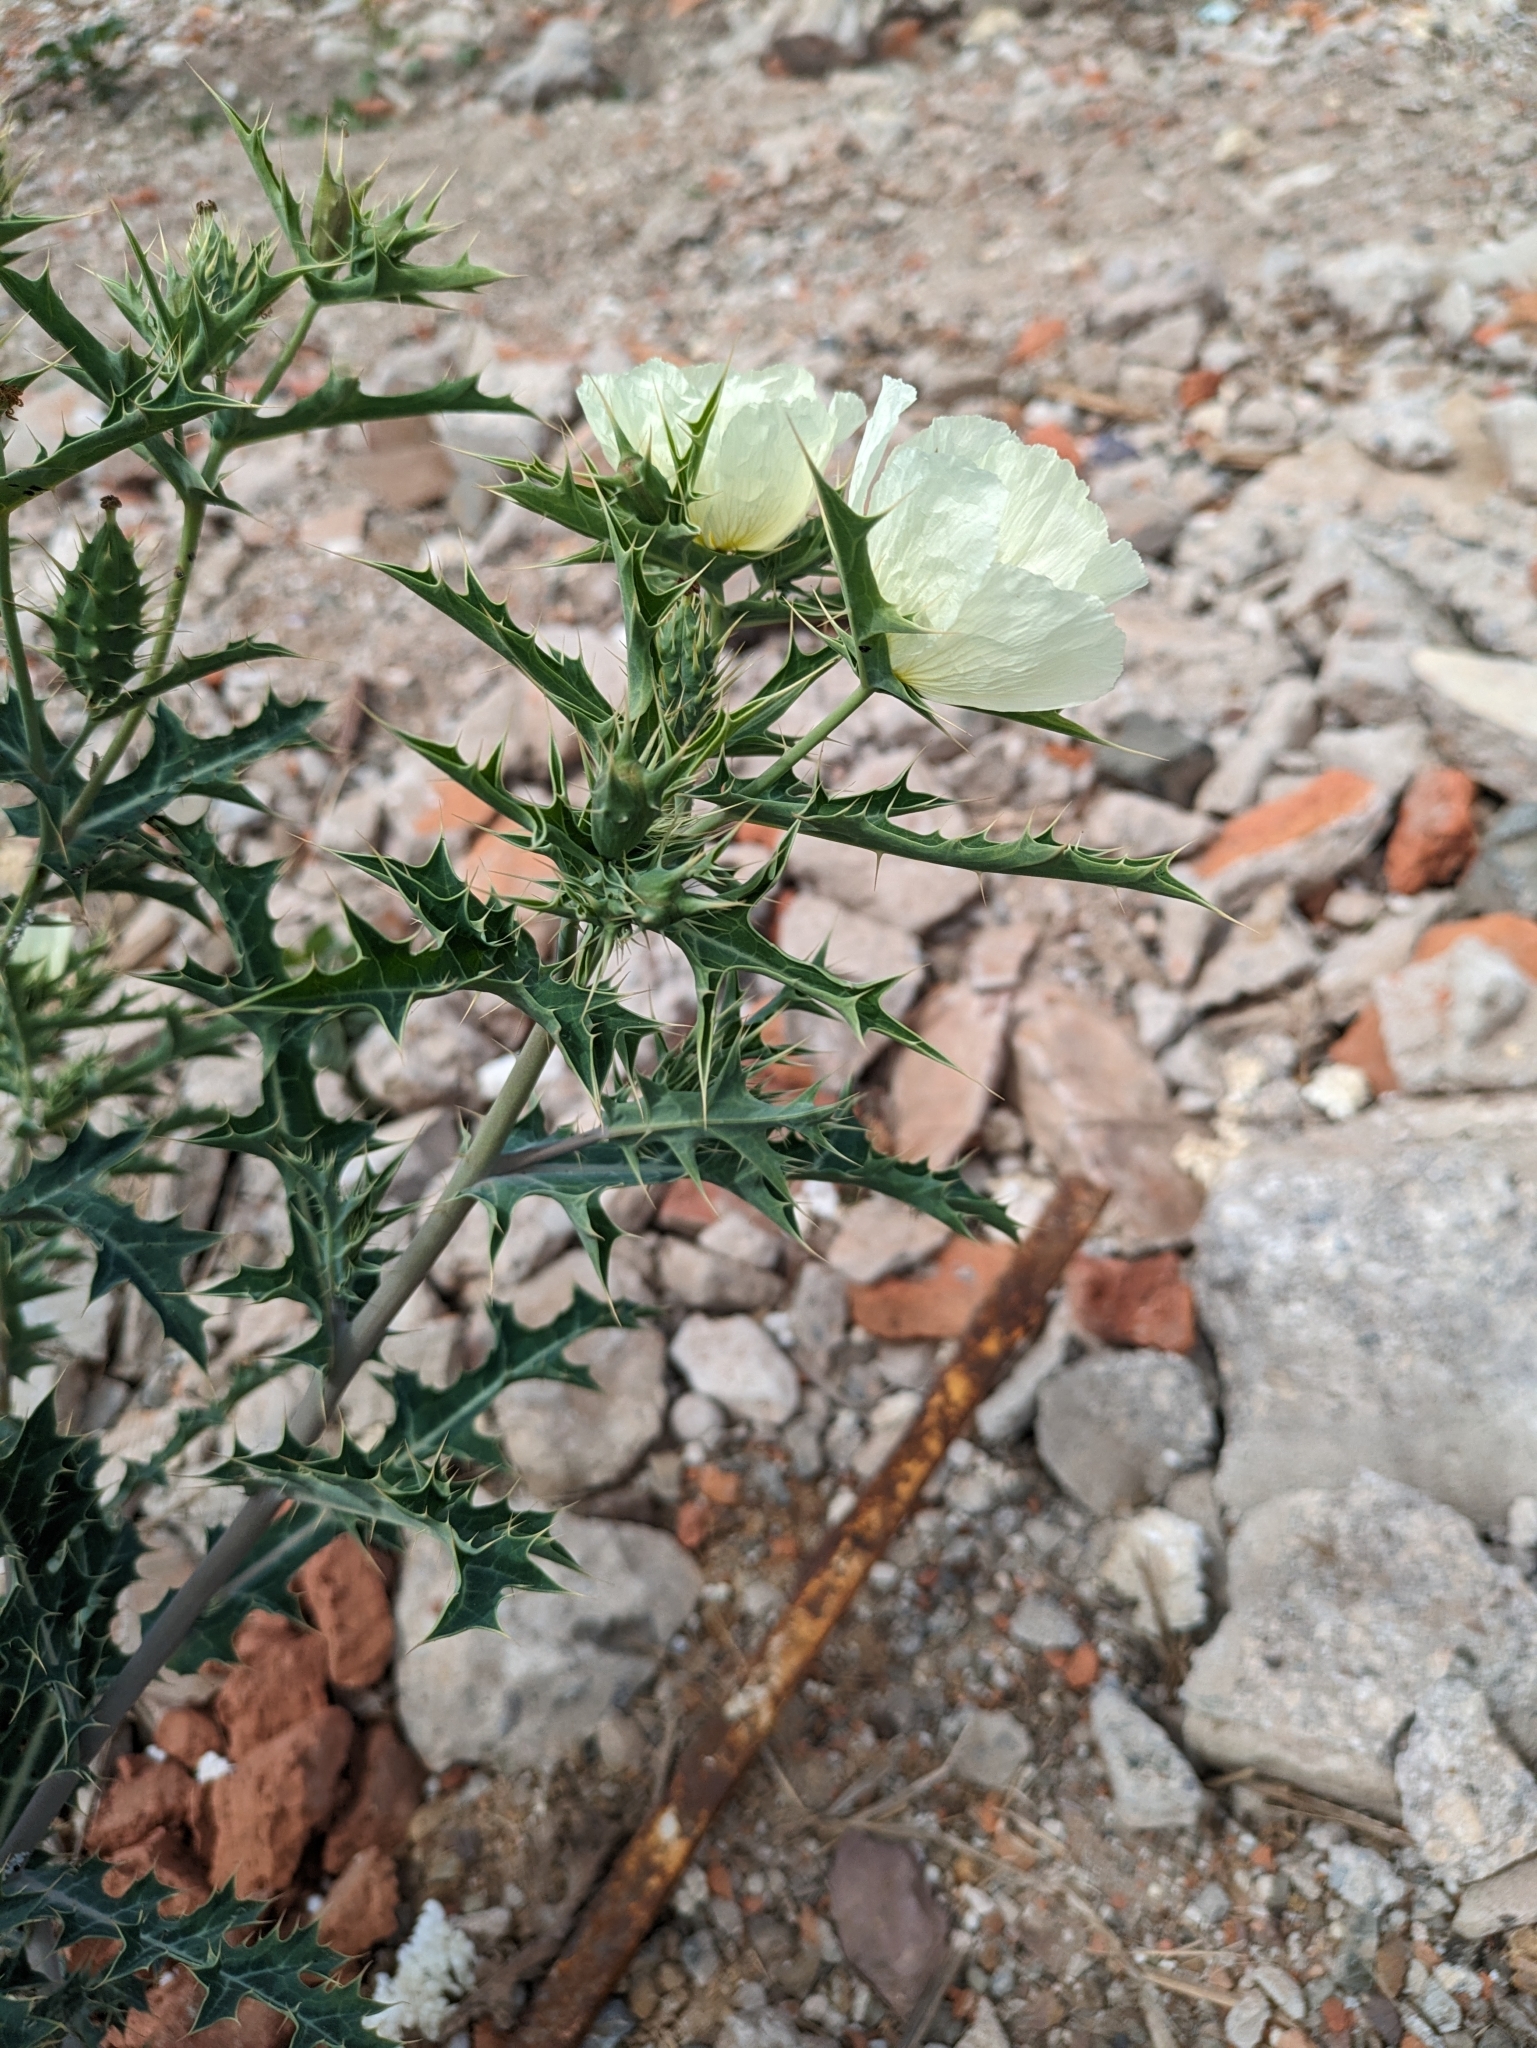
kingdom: Plantae
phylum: Tracheophyta
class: Magnoliopsida
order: Ranunculales
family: Papaveraceae
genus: Argemone
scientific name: Argemone ochroleuca
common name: White-flower mexican-poppy
